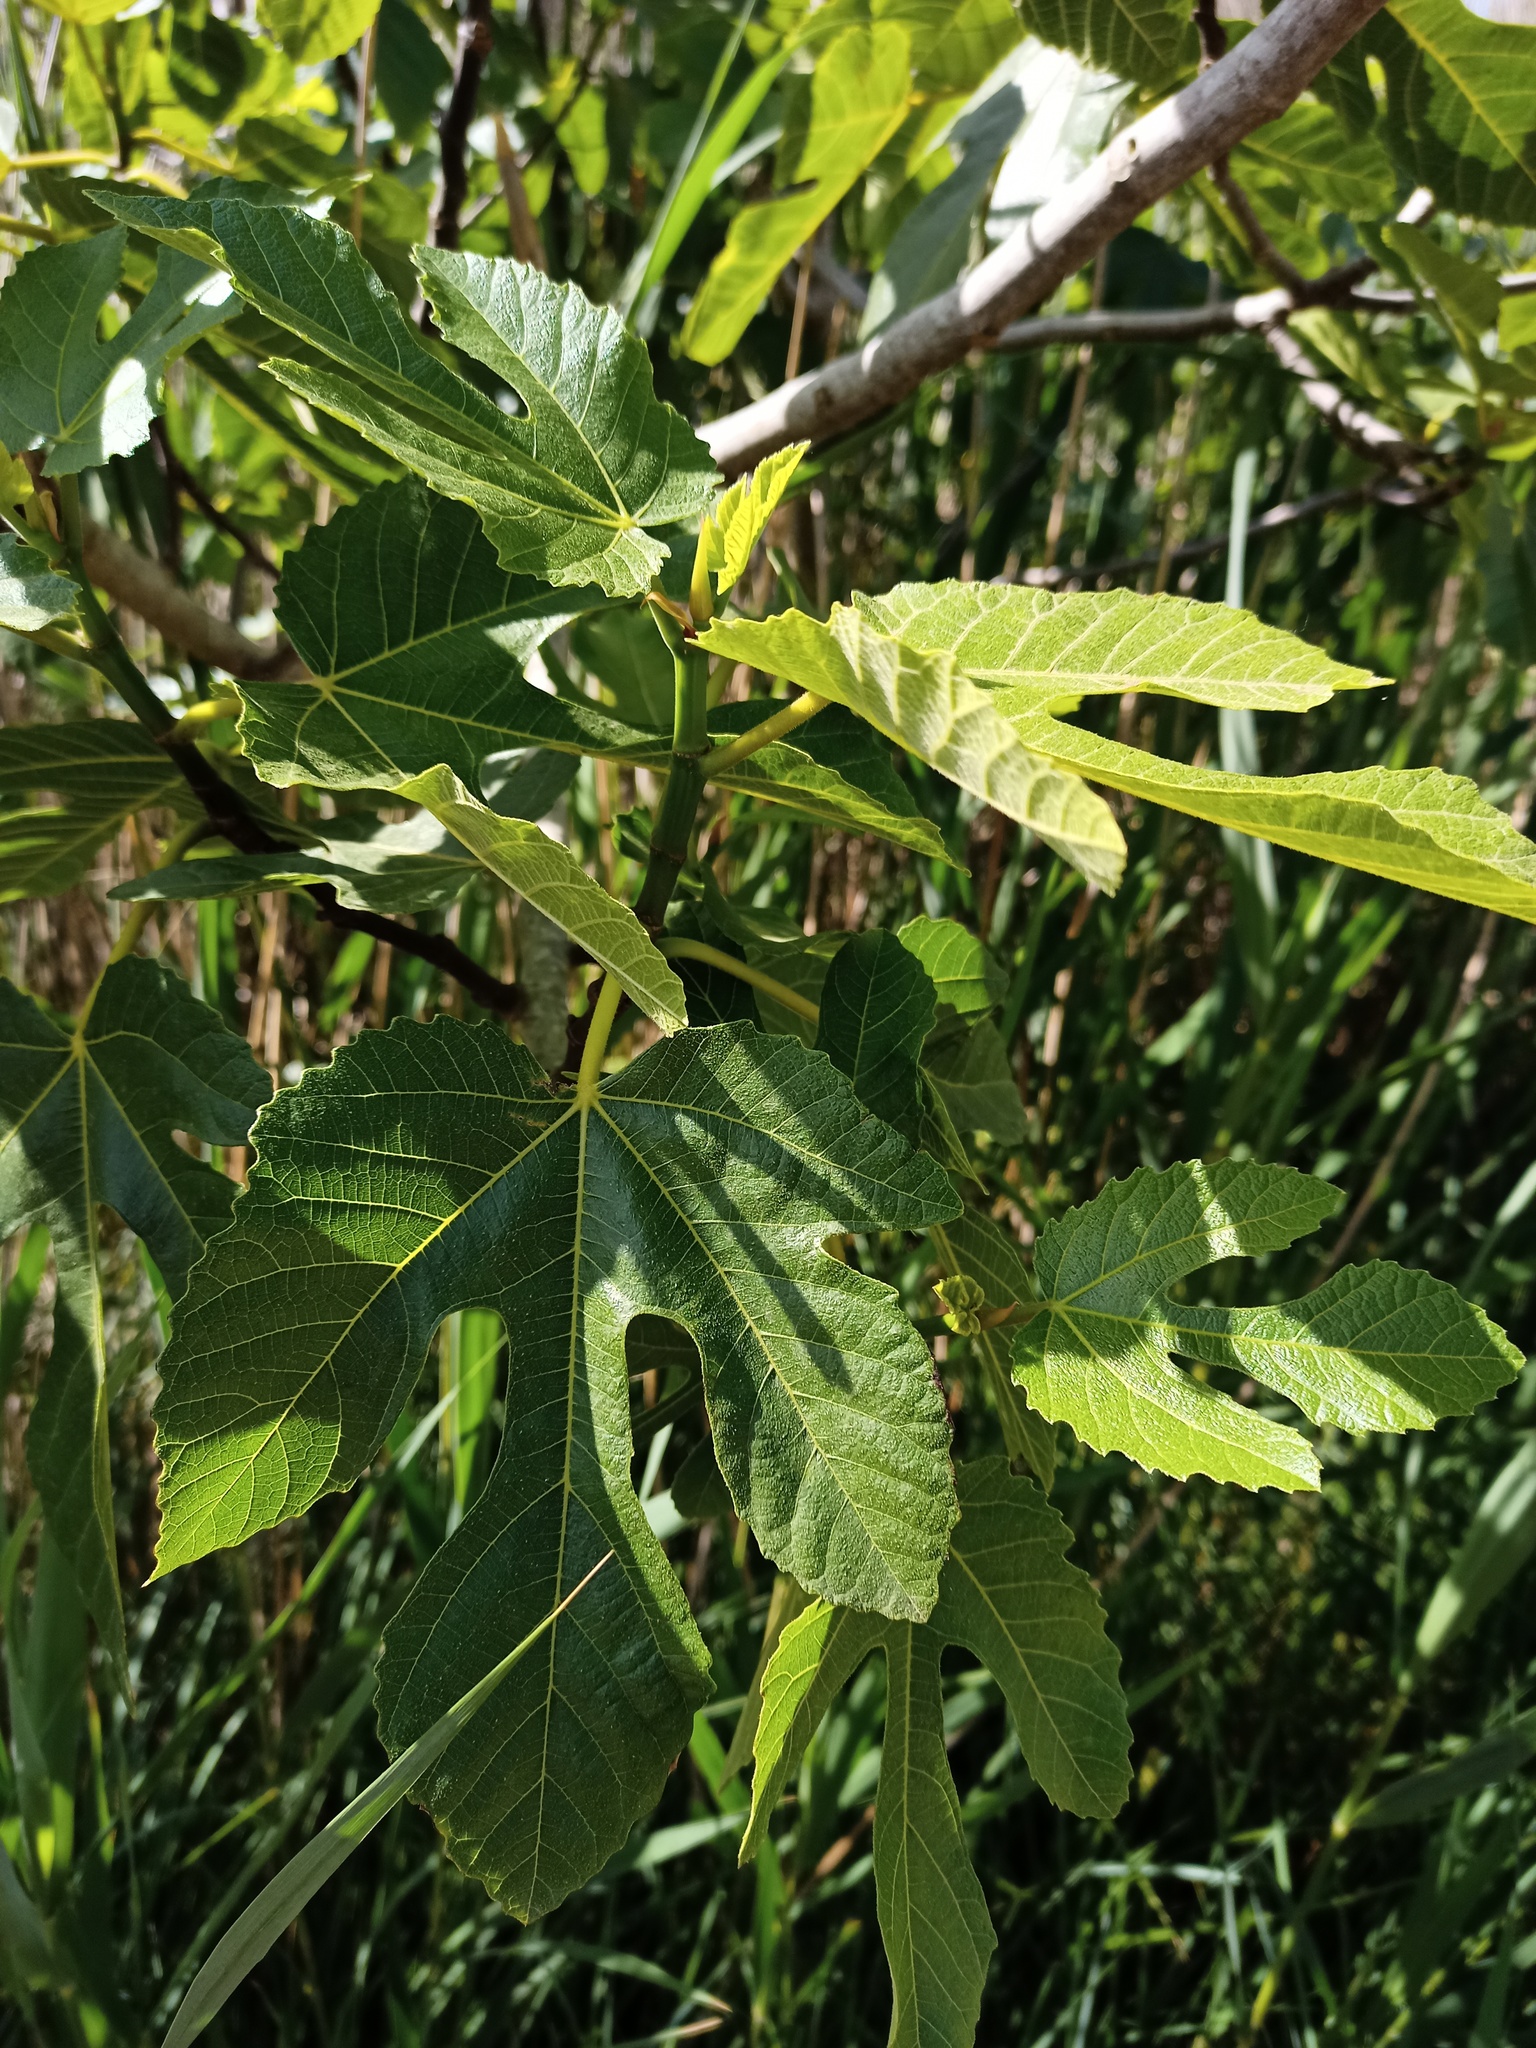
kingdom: Plantae
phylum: Tracheophyta
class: Magnoliopsida
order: Rosales
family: Moraceae
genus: Ficus
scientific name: Ficus carica
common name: Fig
